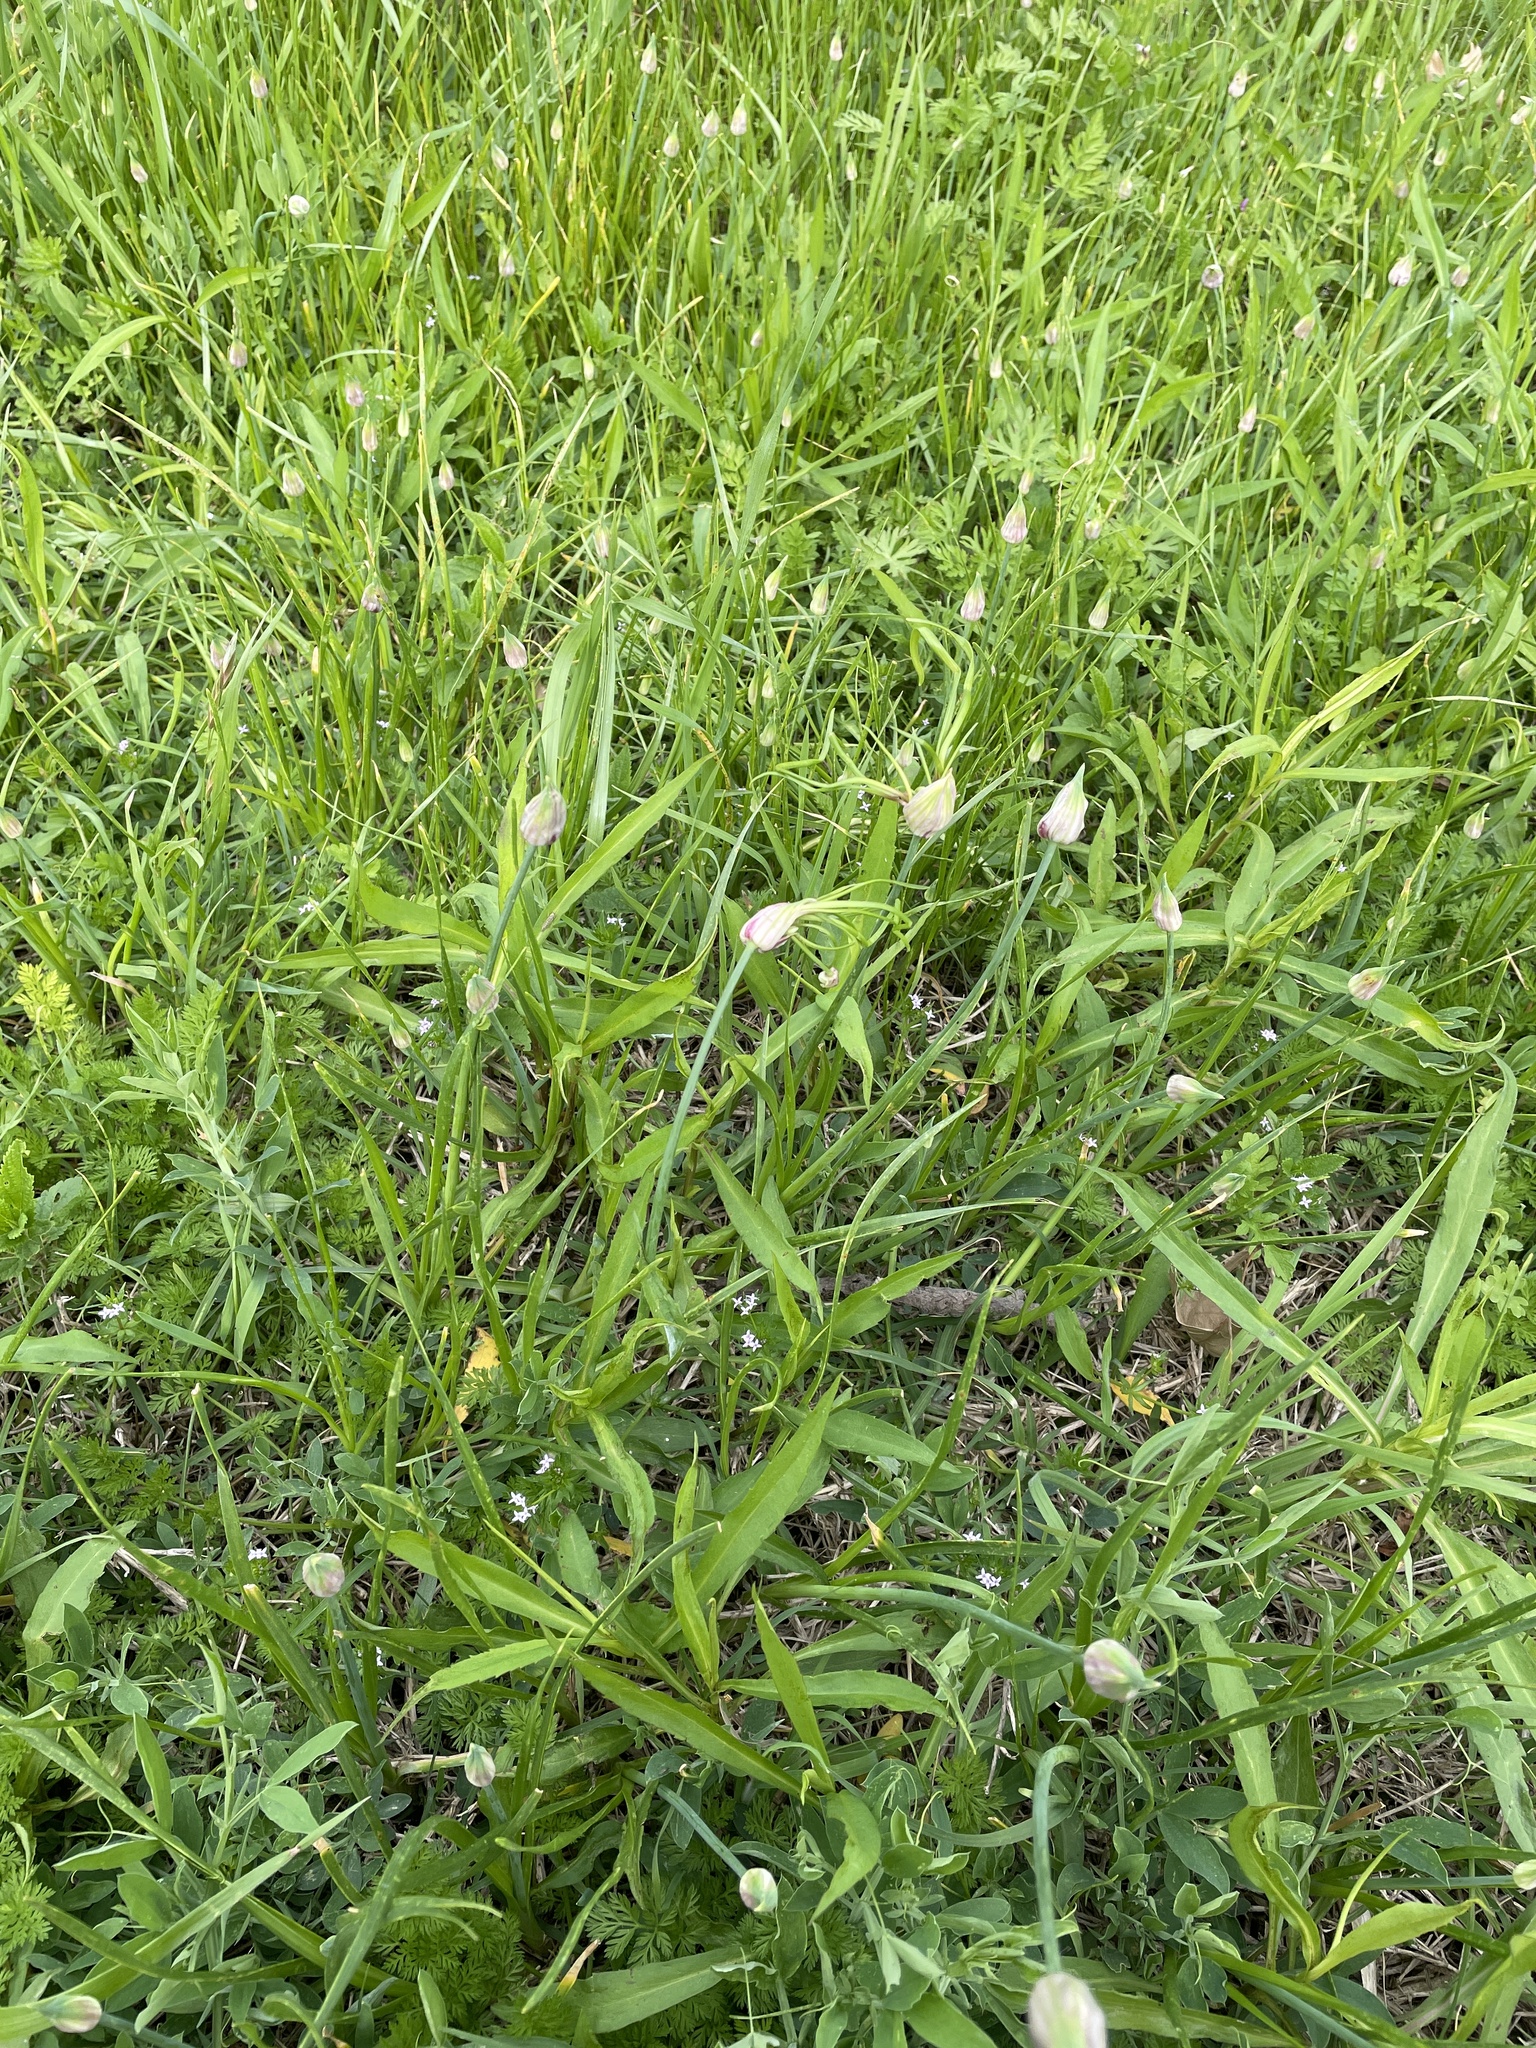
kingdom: Plantae
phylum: Tracheophyta
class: Liliopsida
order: Asparagales
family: Amaryllidaceae
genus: Allium
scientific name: Allium canadense
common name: Meadow garlic
